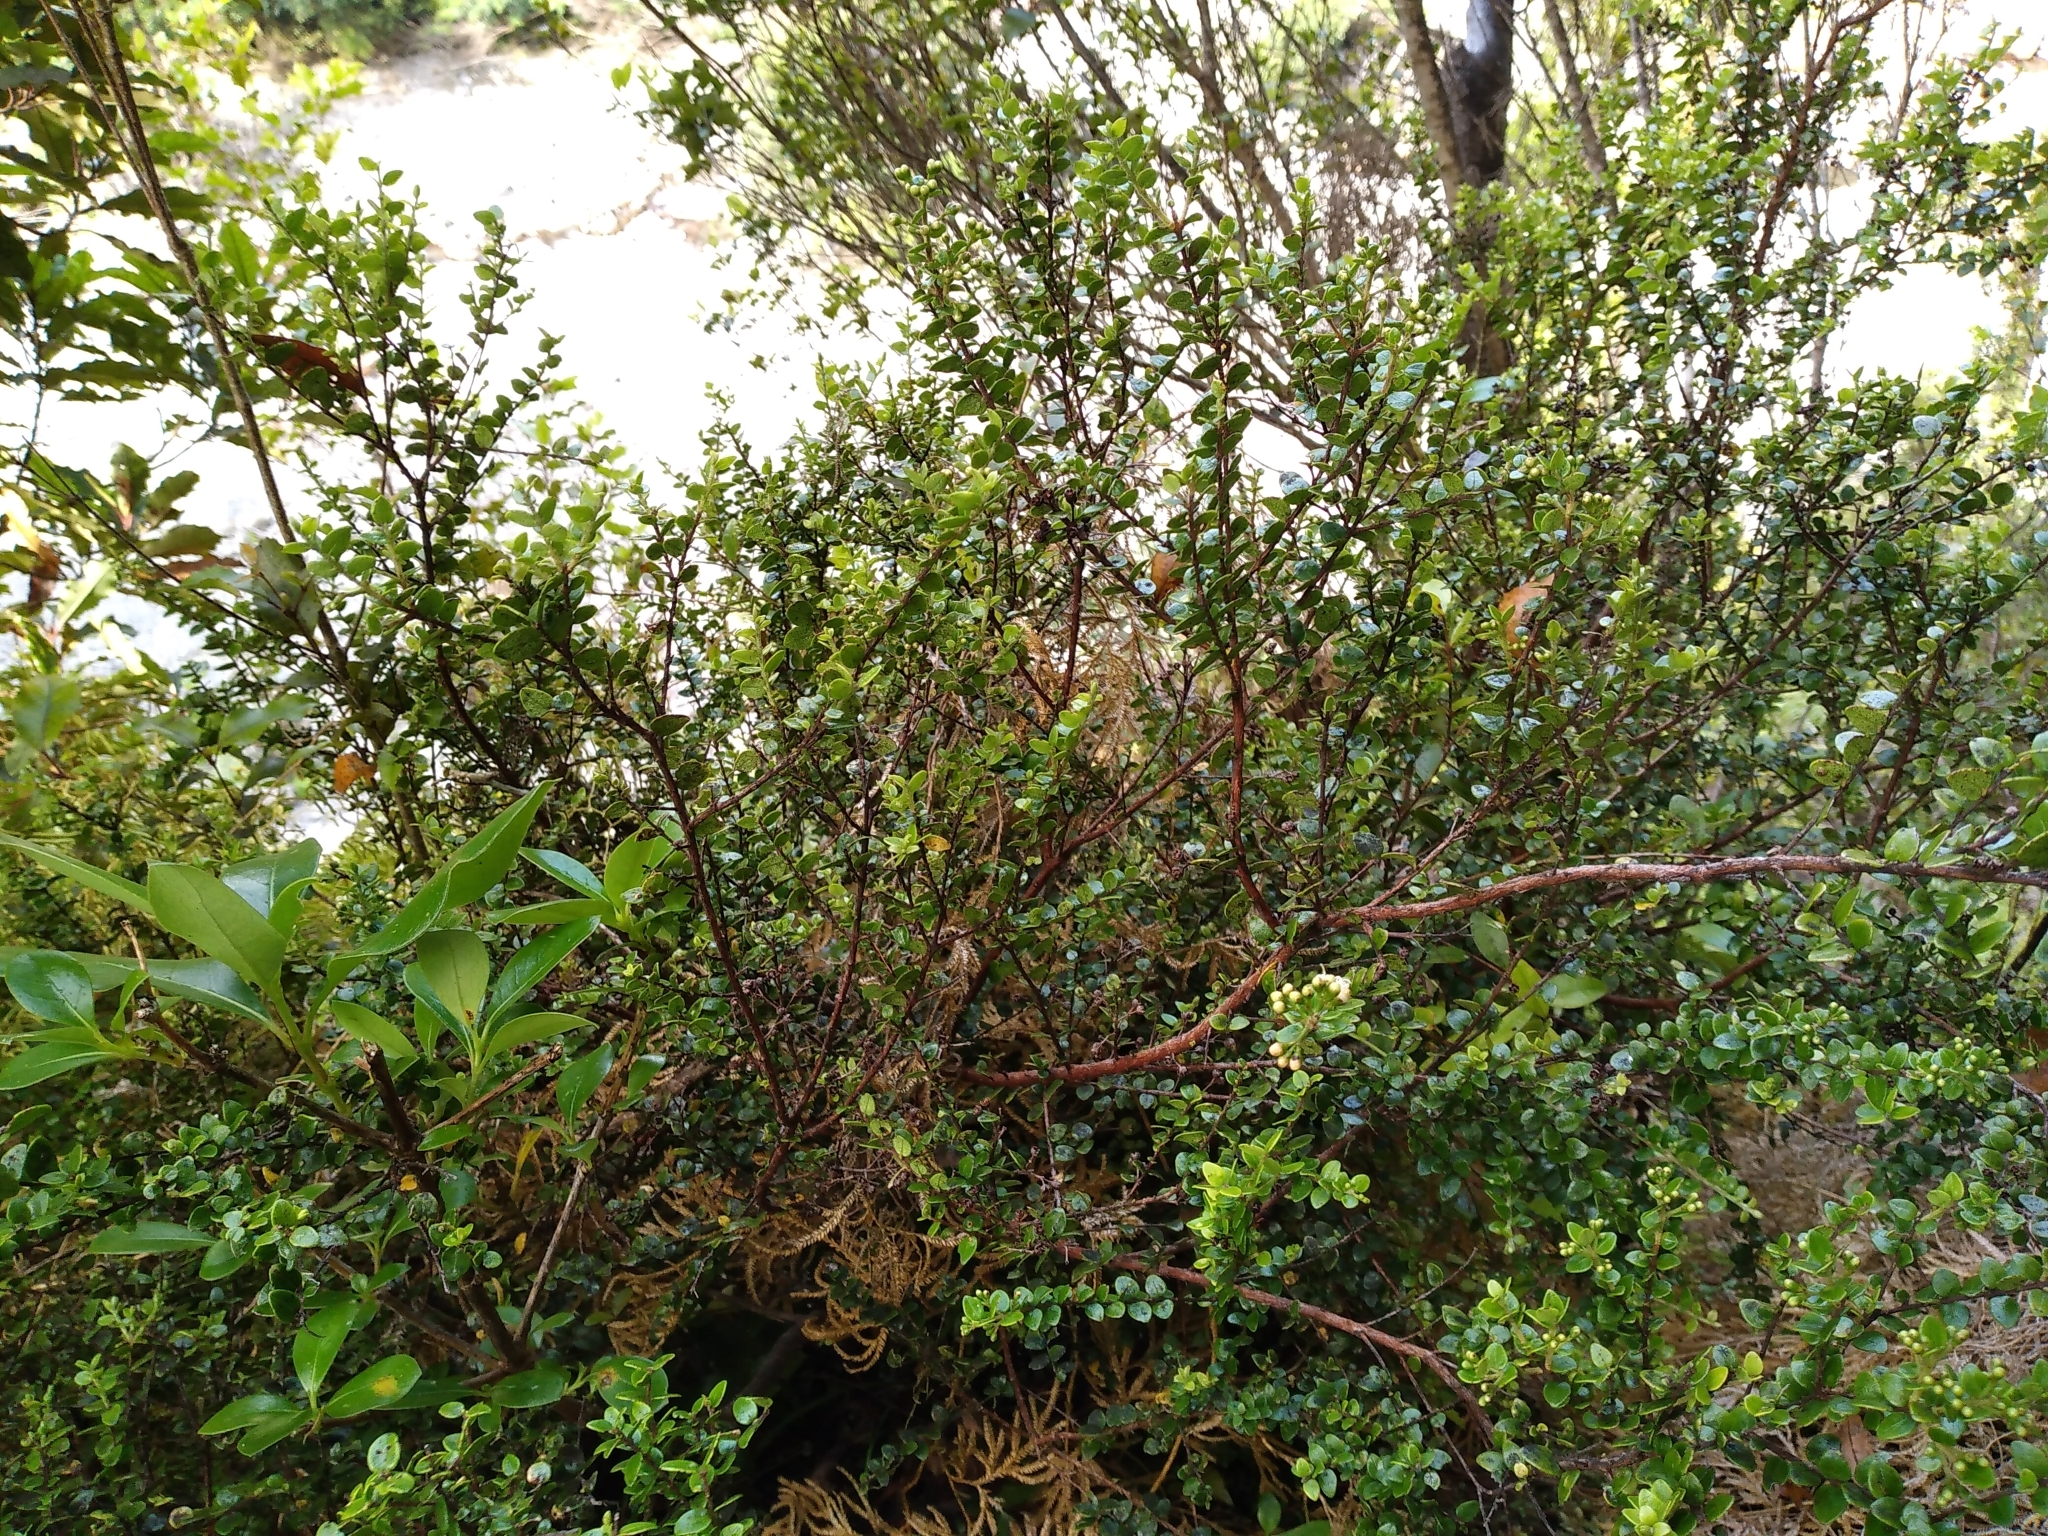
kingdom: Plantae
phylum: Tracheophyta
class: Magnoliopsida
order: Myrtales
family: Myrtaceae
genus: Metrosideros
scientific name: Metrosideros perforata
